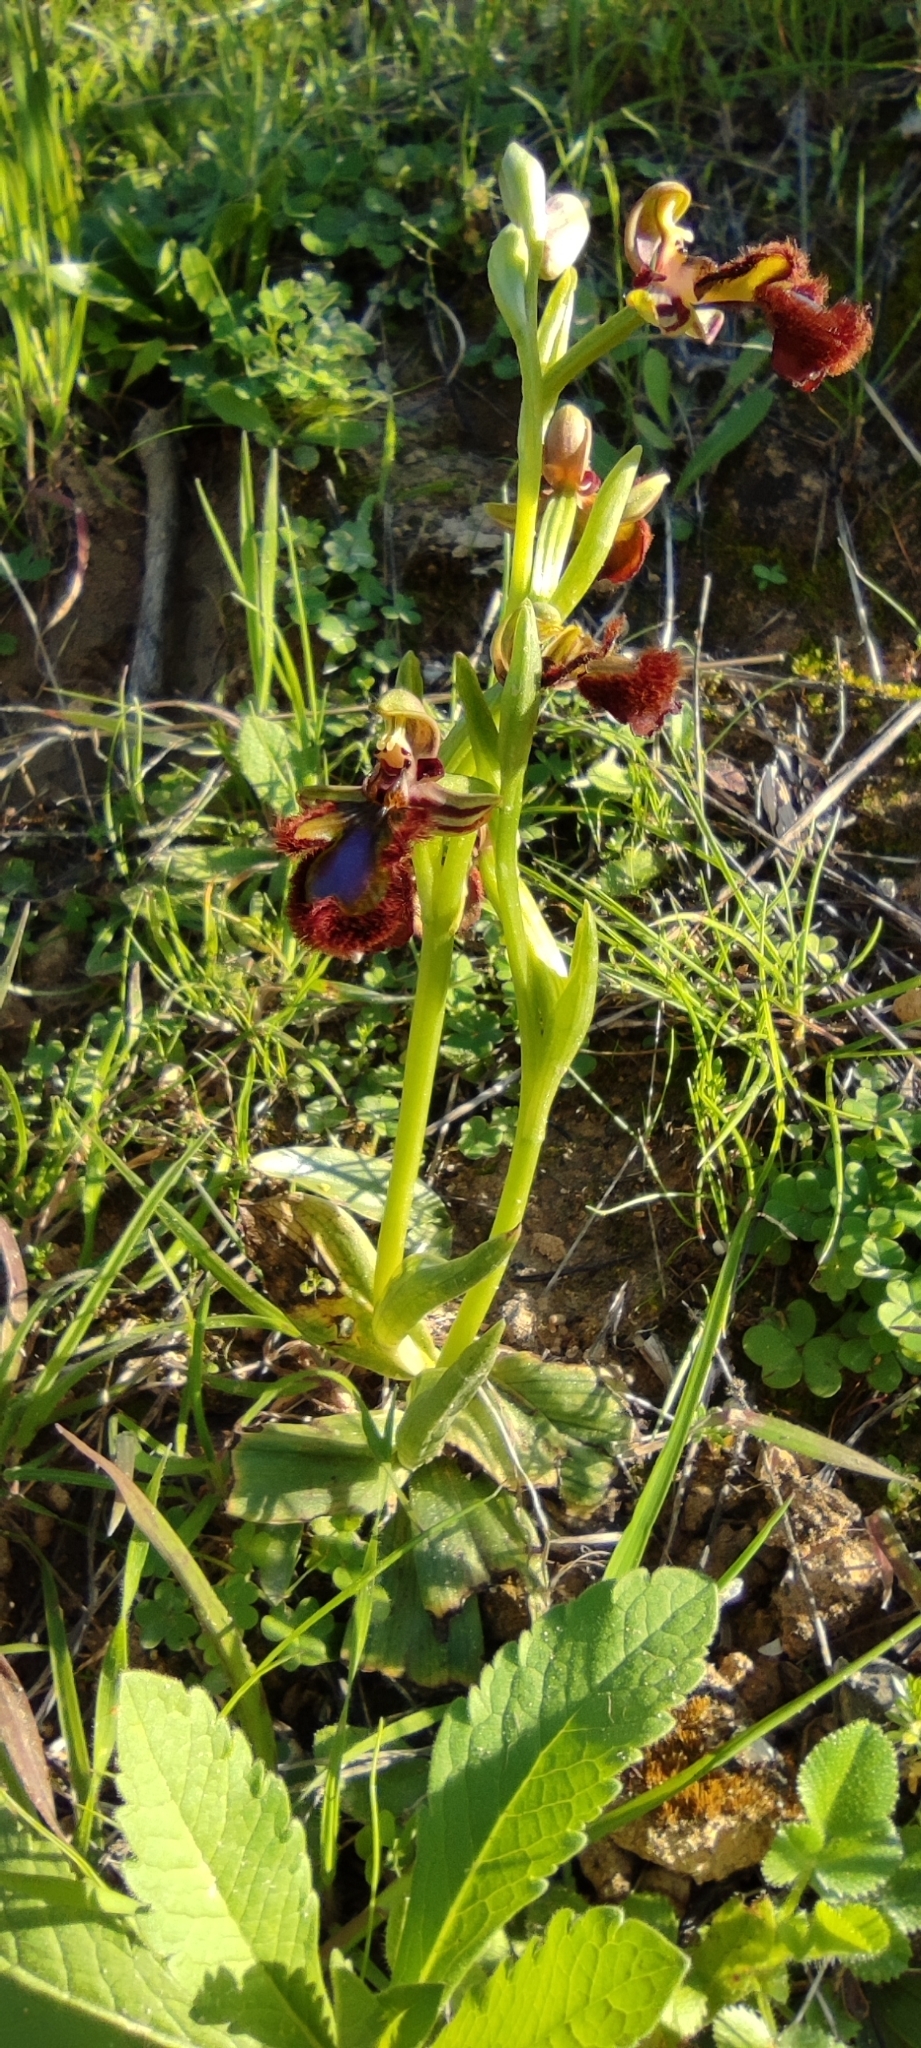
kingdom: Plantae
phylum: Tracheophyta
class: Liliopsida
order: Asparagales
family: Orchidaceae
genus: Ophrys
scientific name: Ophrys speculum
